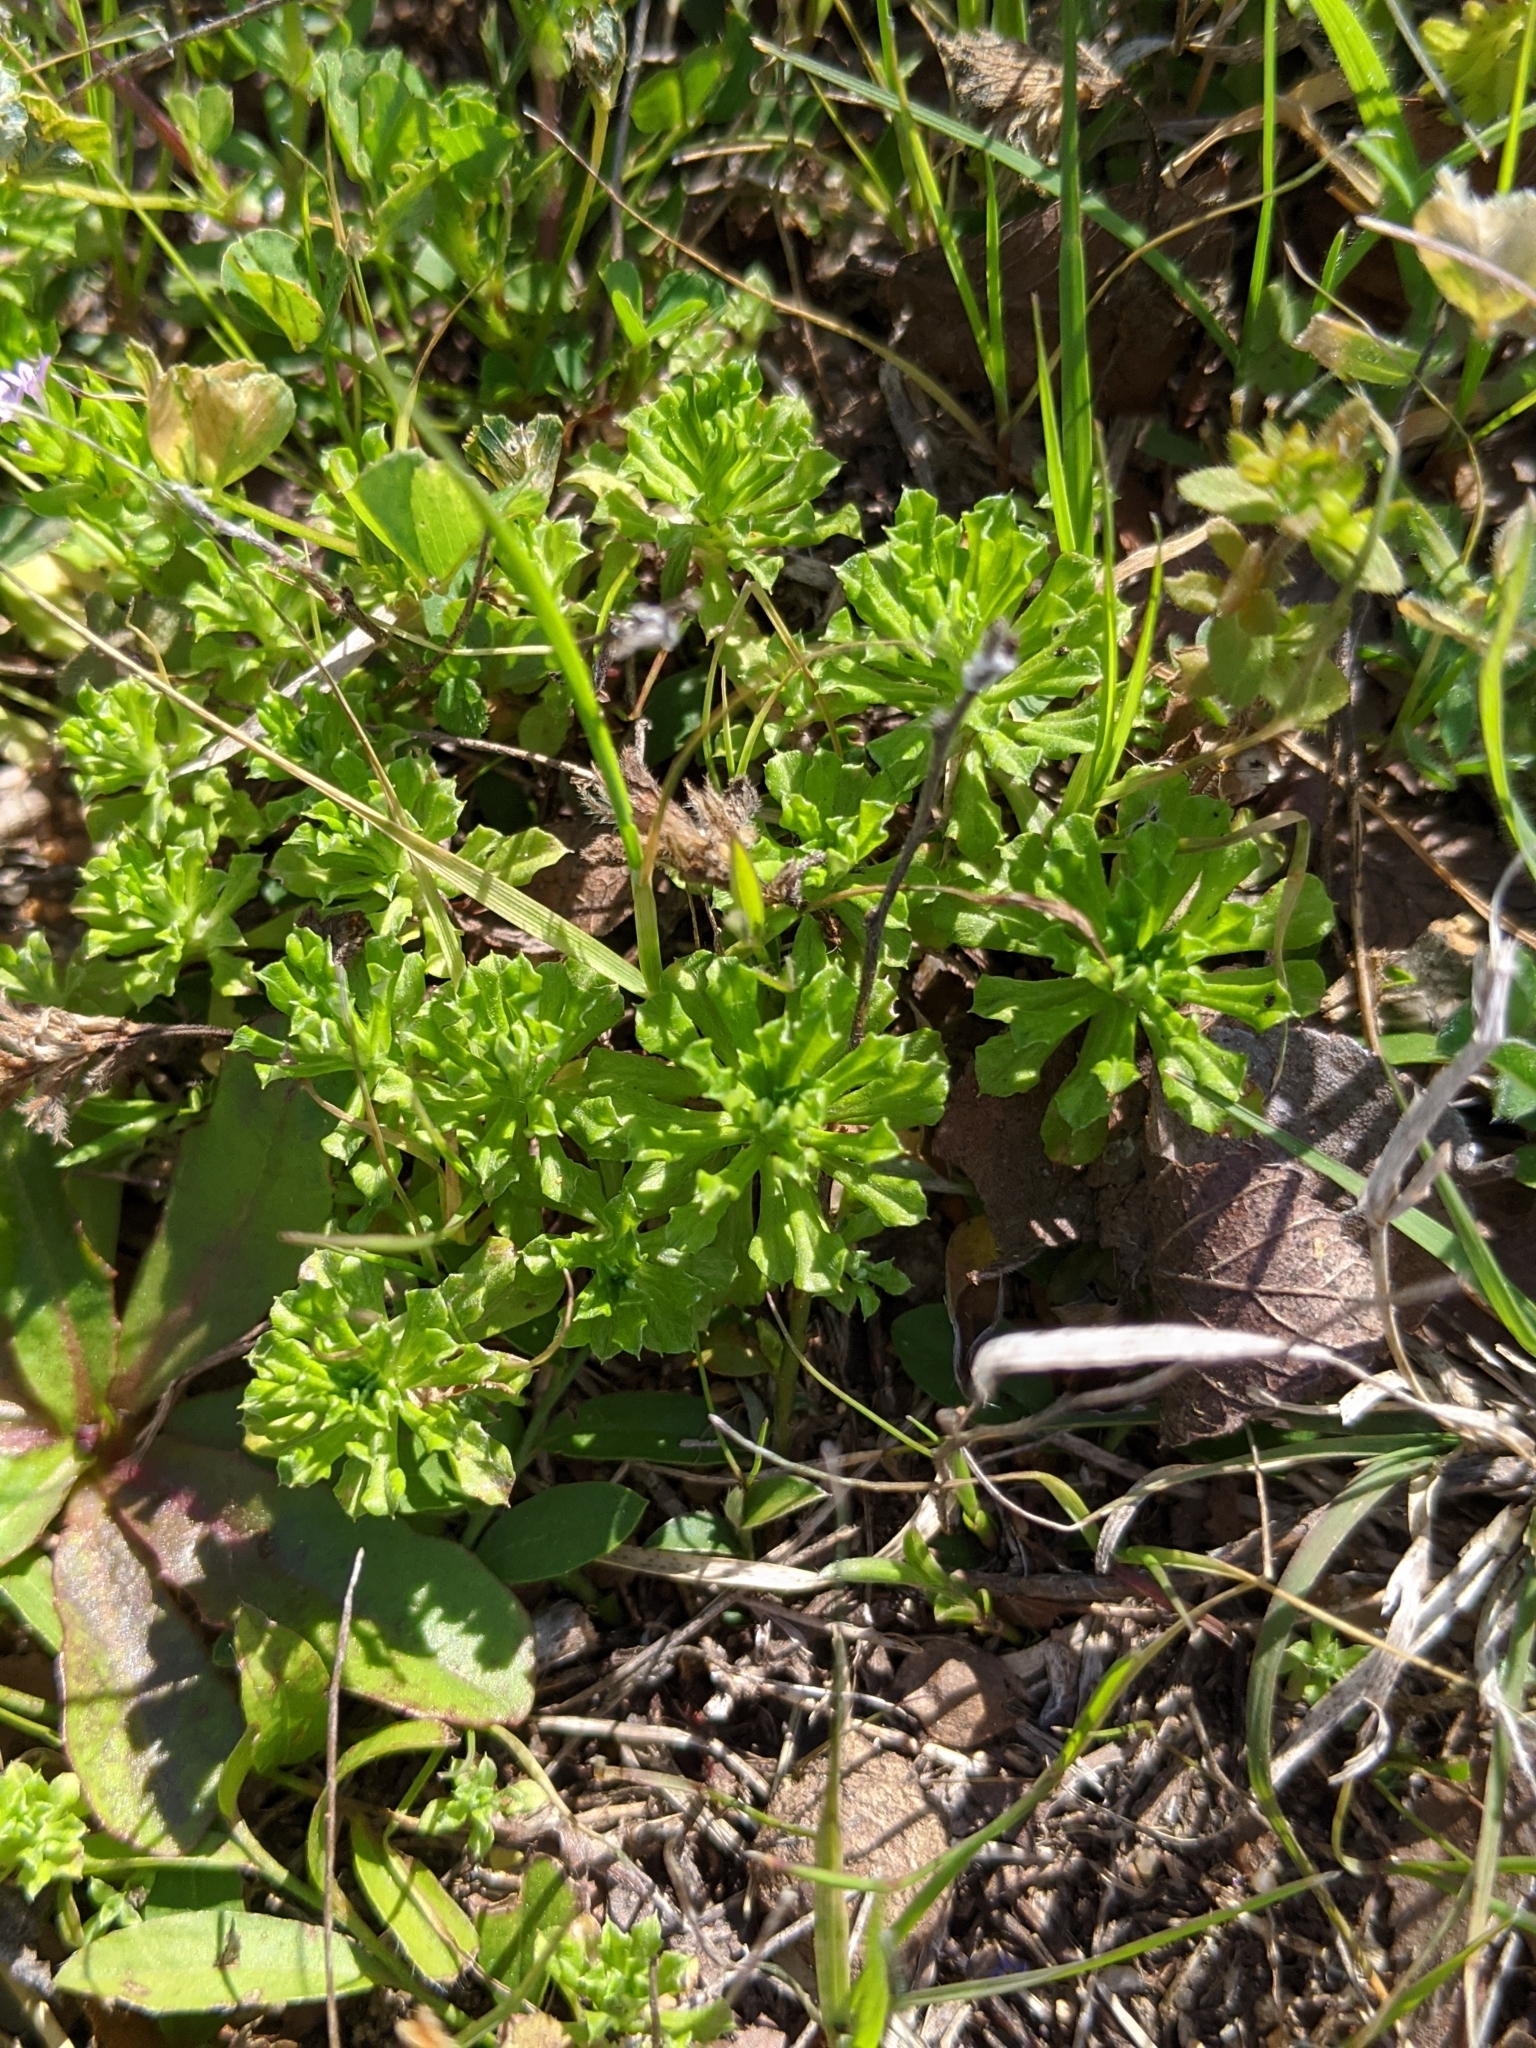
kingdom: Plantae
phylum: Tracheophyta
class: Magnoliopsida
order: Asterales
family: Asteraceae
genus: Facelis
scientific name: Facelis retusa
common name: Annual trampweed
